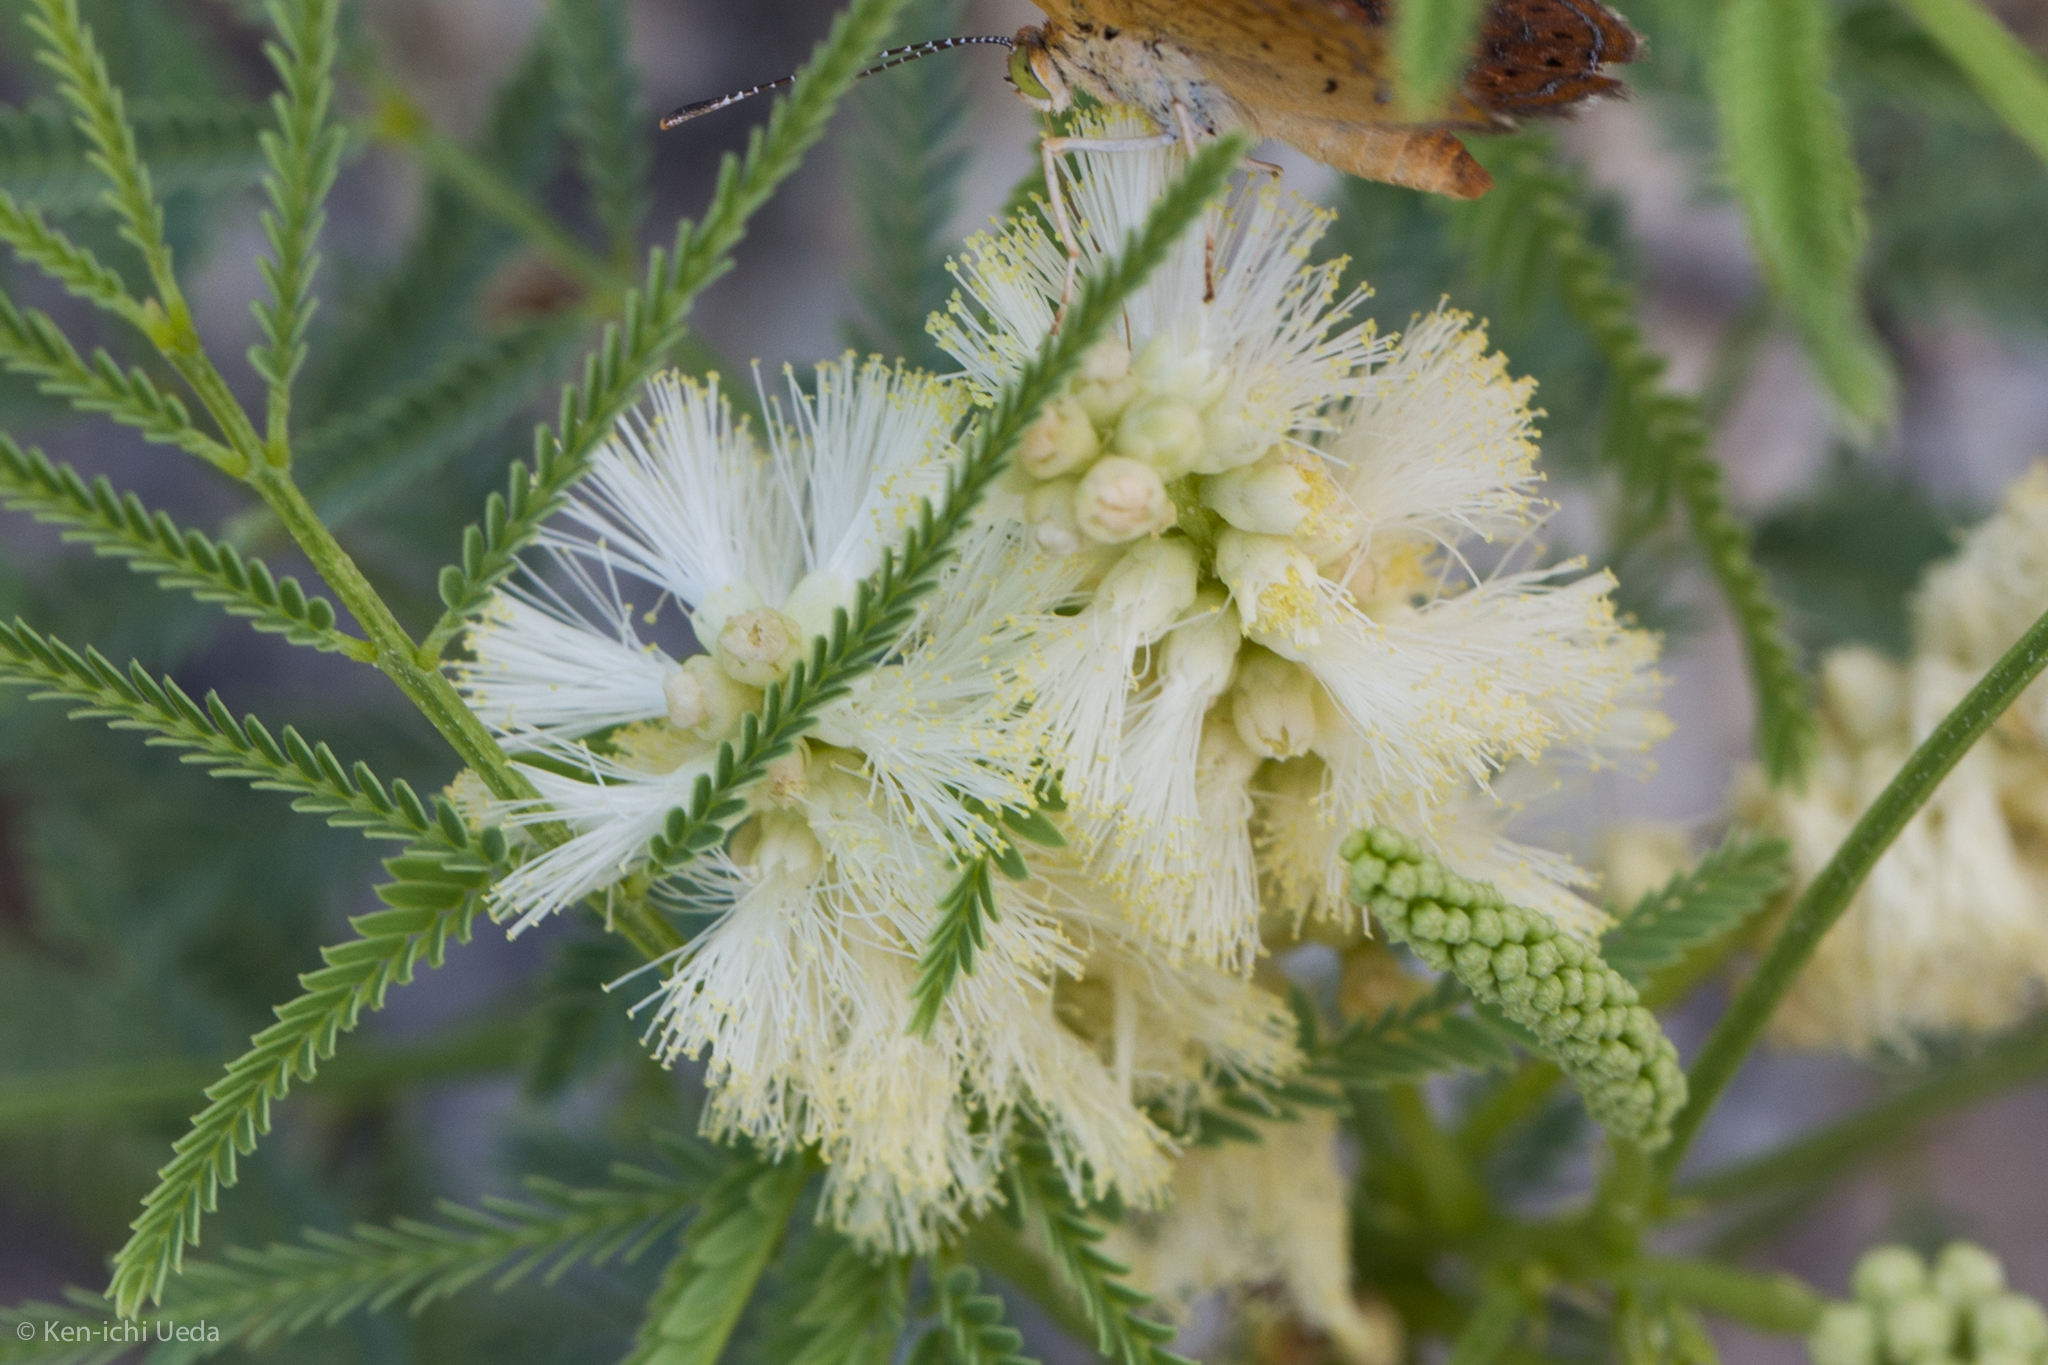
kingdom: Plantae
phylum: Tracheophyta
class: Magnoliopsida
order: Fabales
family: Fabaceae
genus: Mariosousa
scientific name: Mariosousa millefolia
